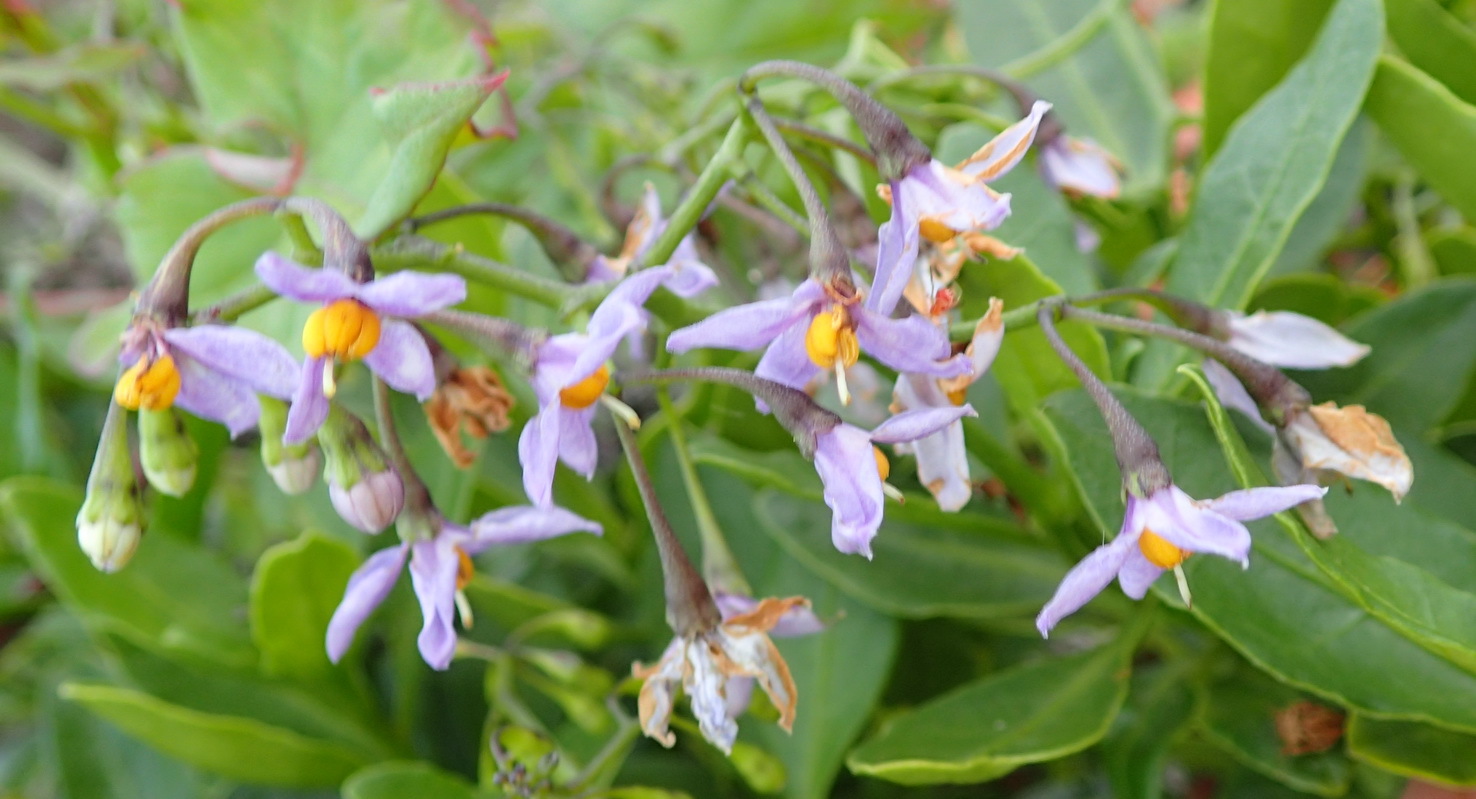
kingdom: Plantae
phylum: Tracheophyta
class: Magnoliopsida
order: Solanales
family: Solanaceae
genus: Solanum
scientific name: Solanum africanum
